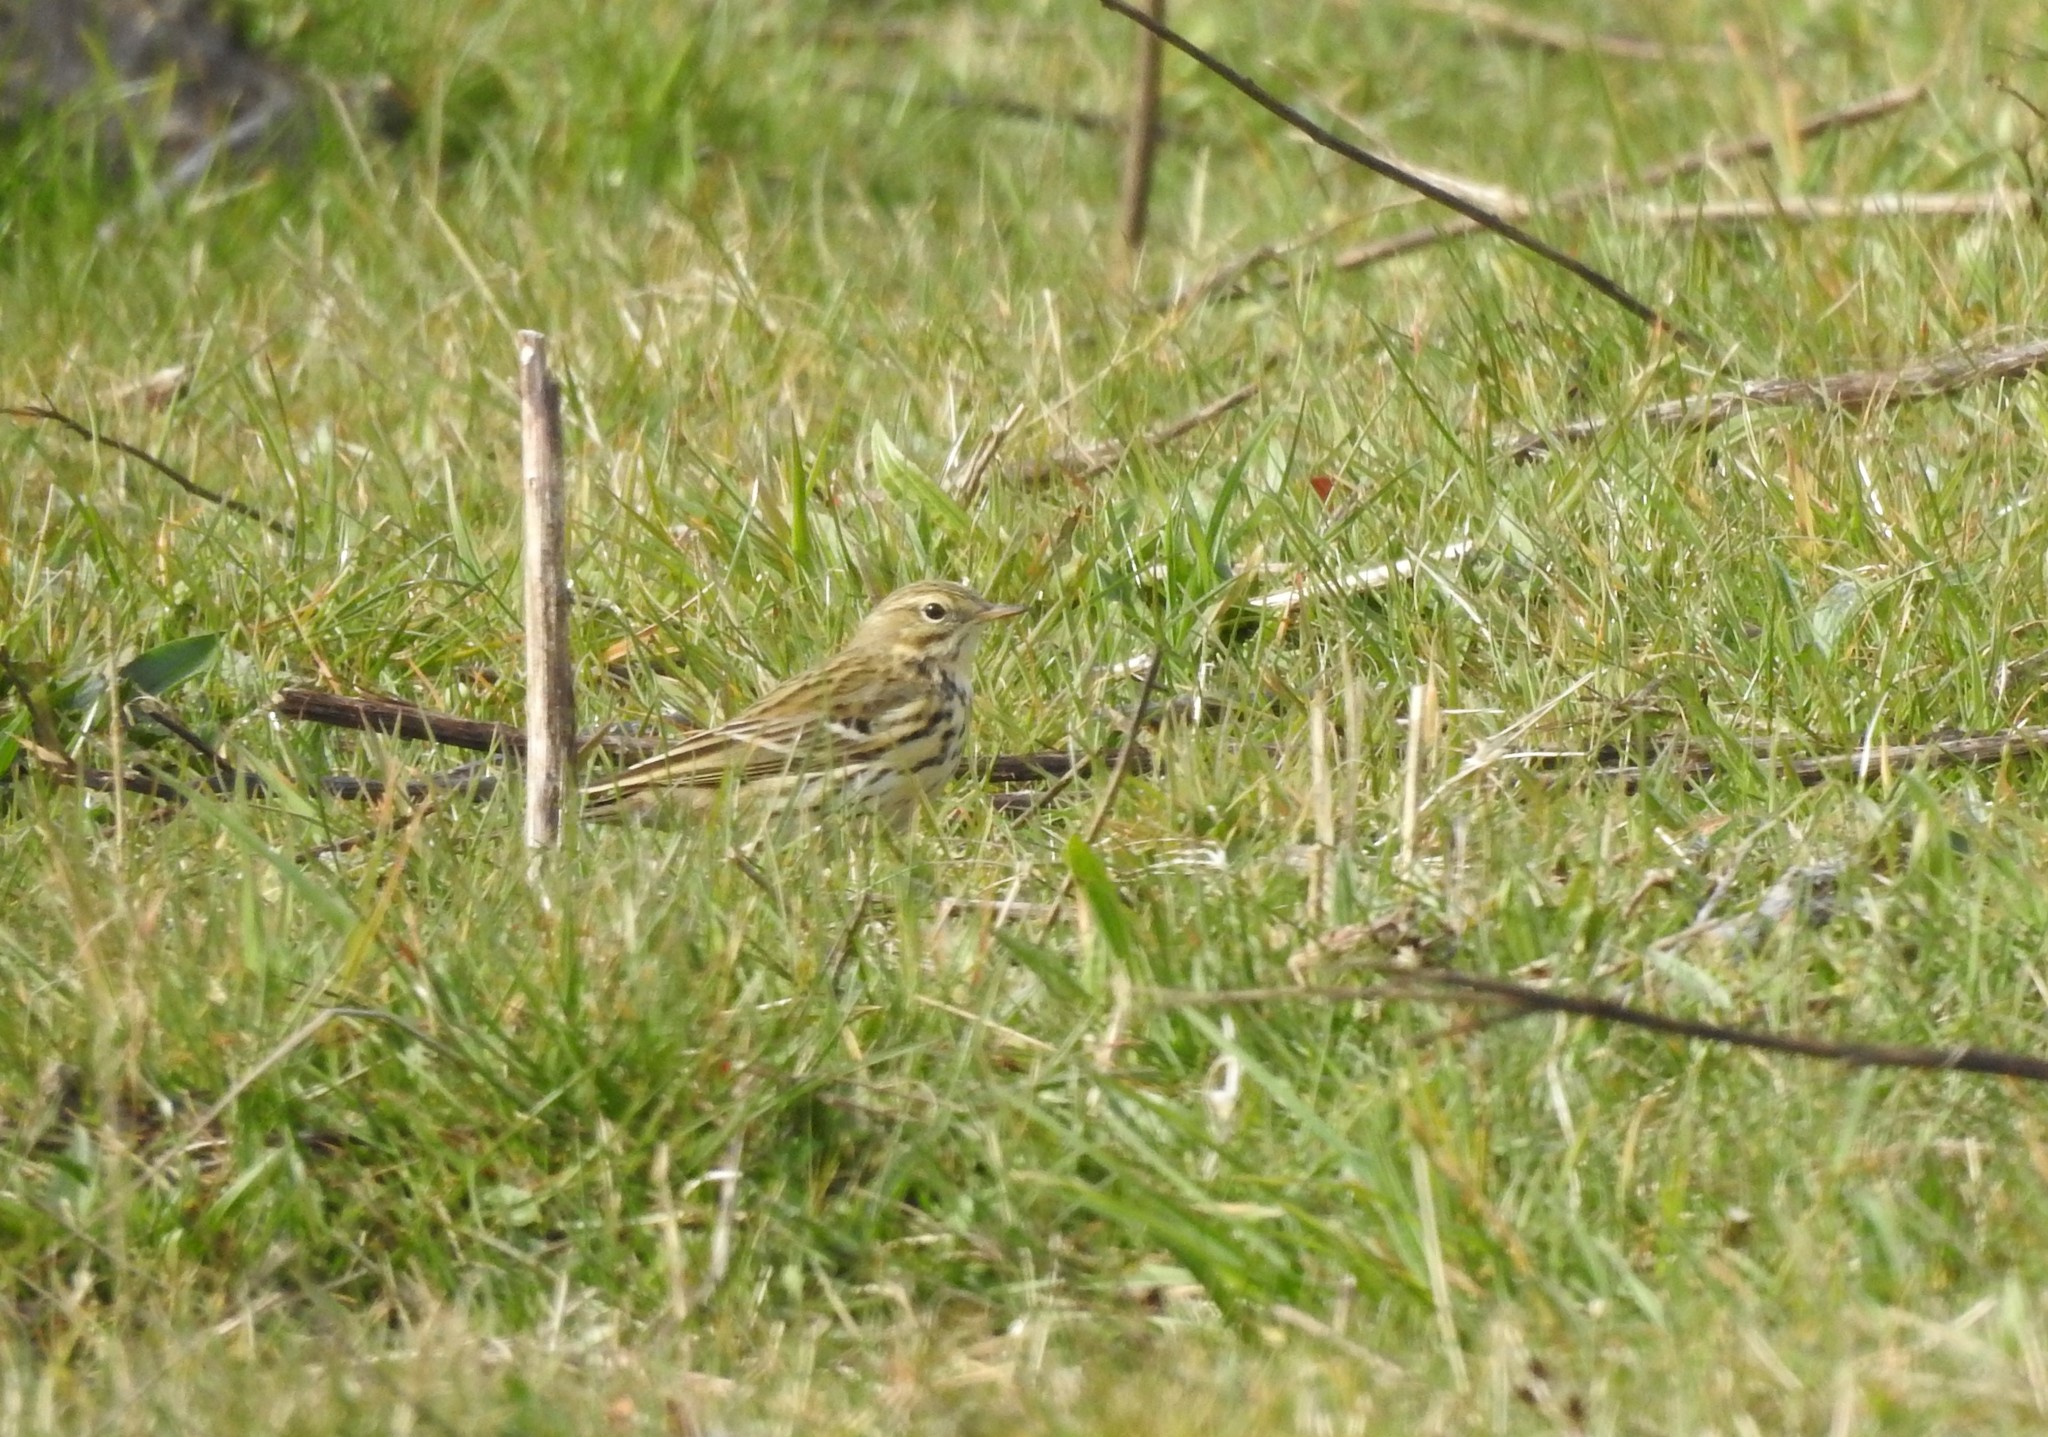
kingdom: Animalia
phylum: Chordata
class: Aves
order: Passeriformes
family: Motacillidae
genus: Anthus
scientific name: Anthus pratensis
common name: Meadow pipit
